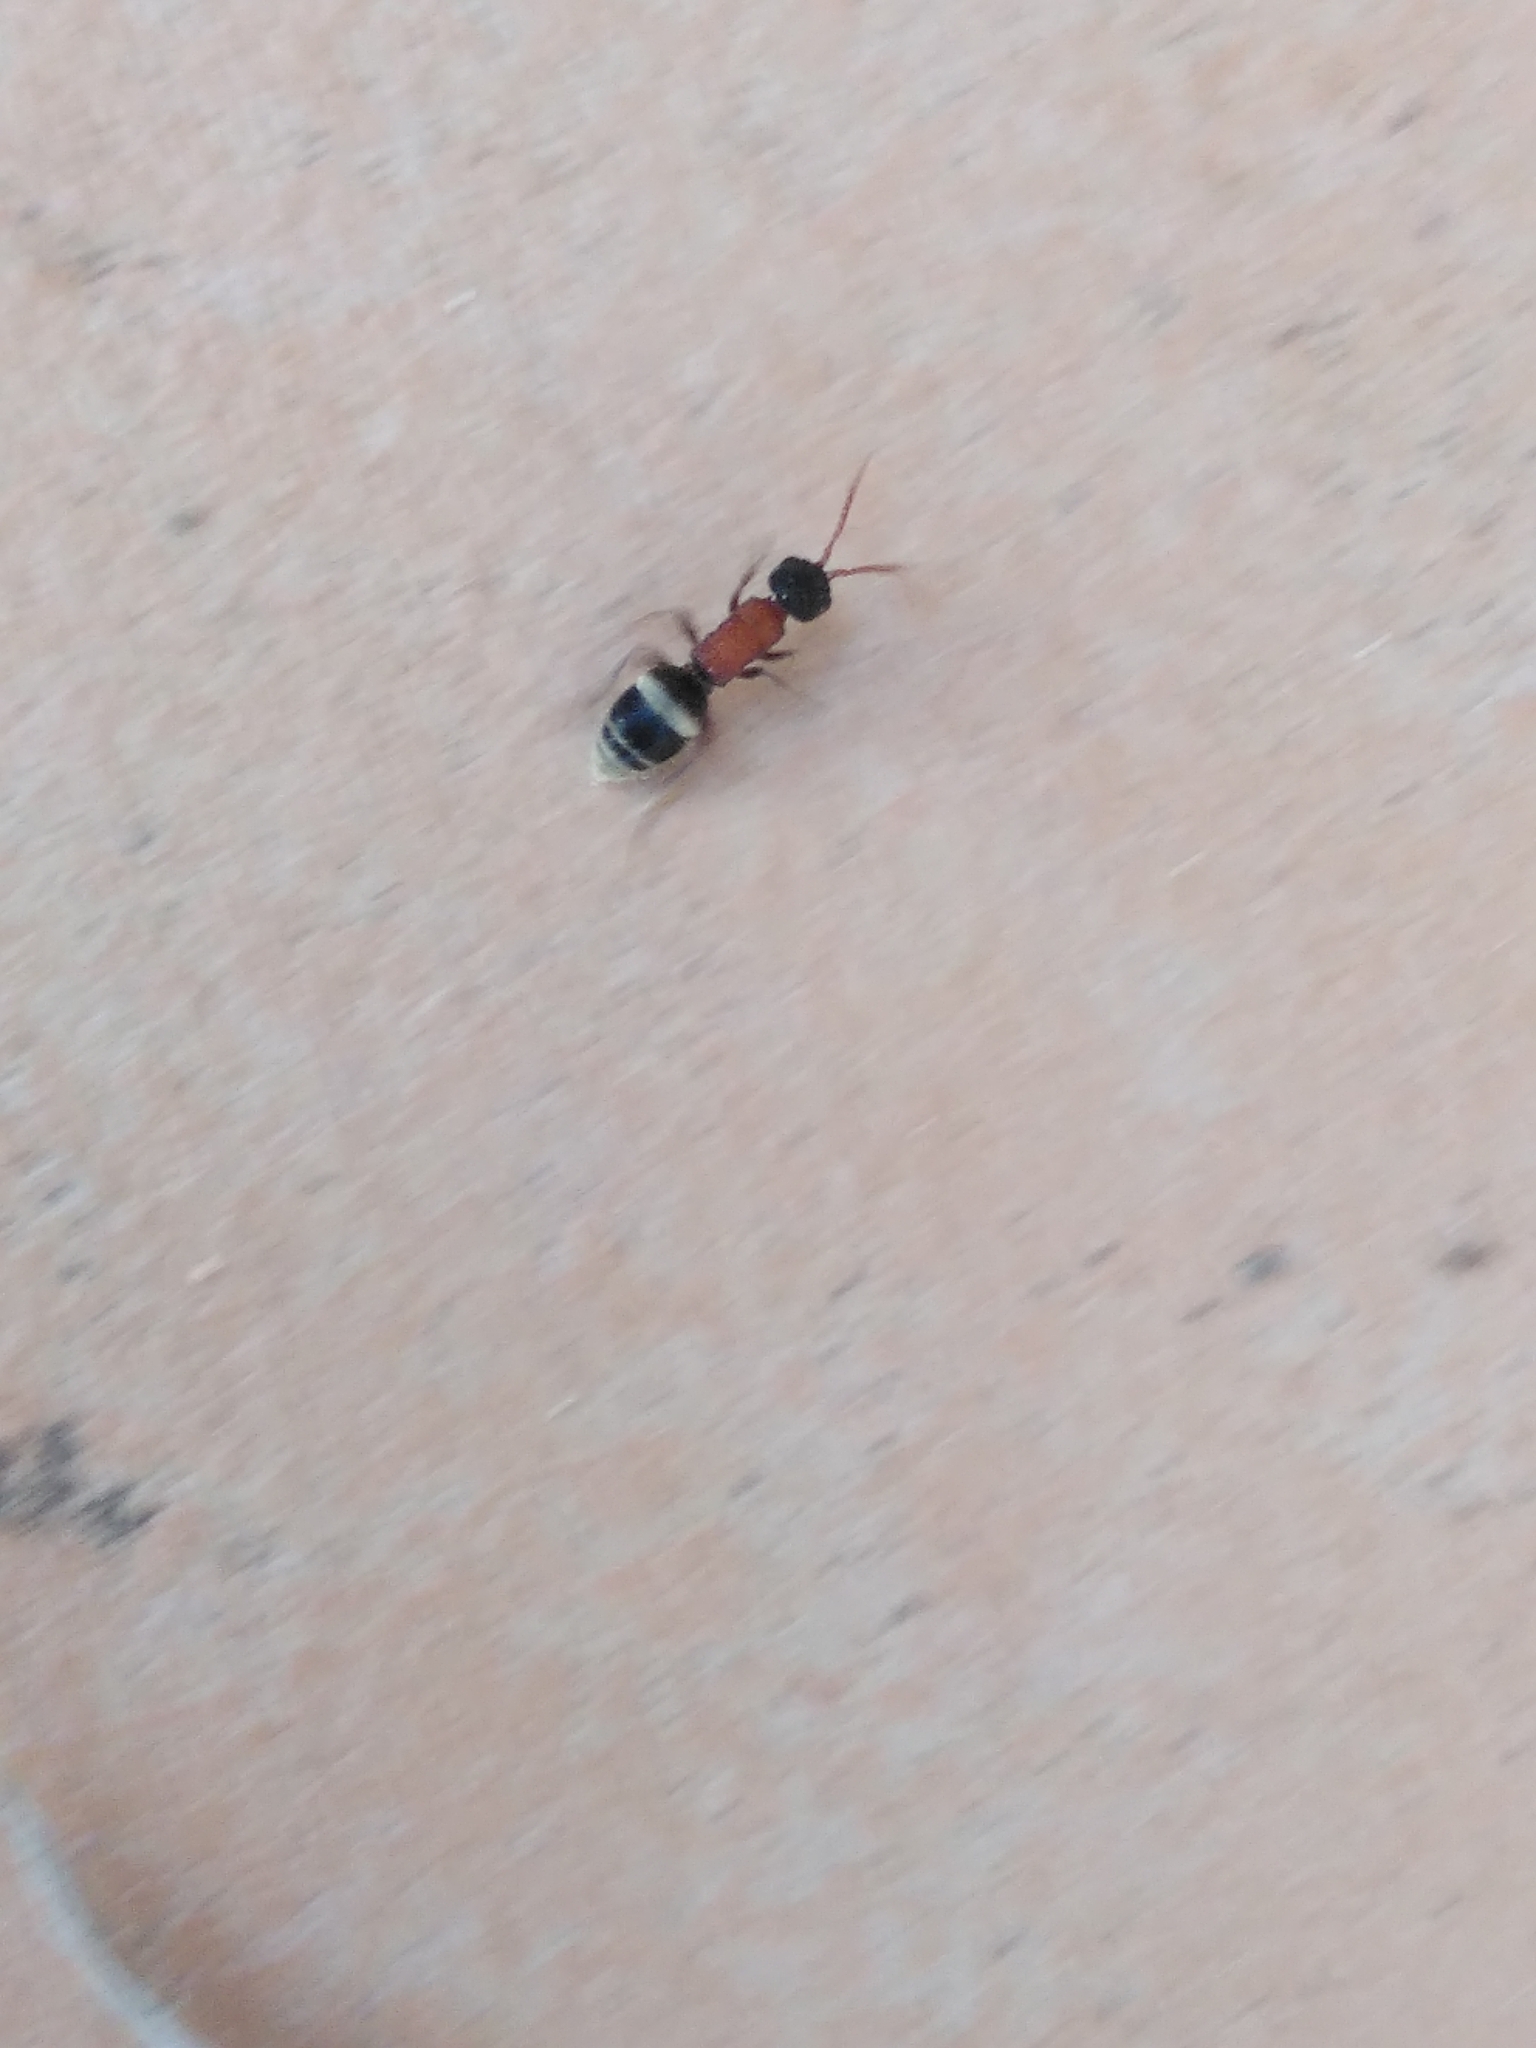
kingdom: Animalia
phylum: Arthropoda
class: Insecta
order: Hymenoptera
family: Mutillidae
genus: Krombeinella
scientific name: Krombeinella aterrima
